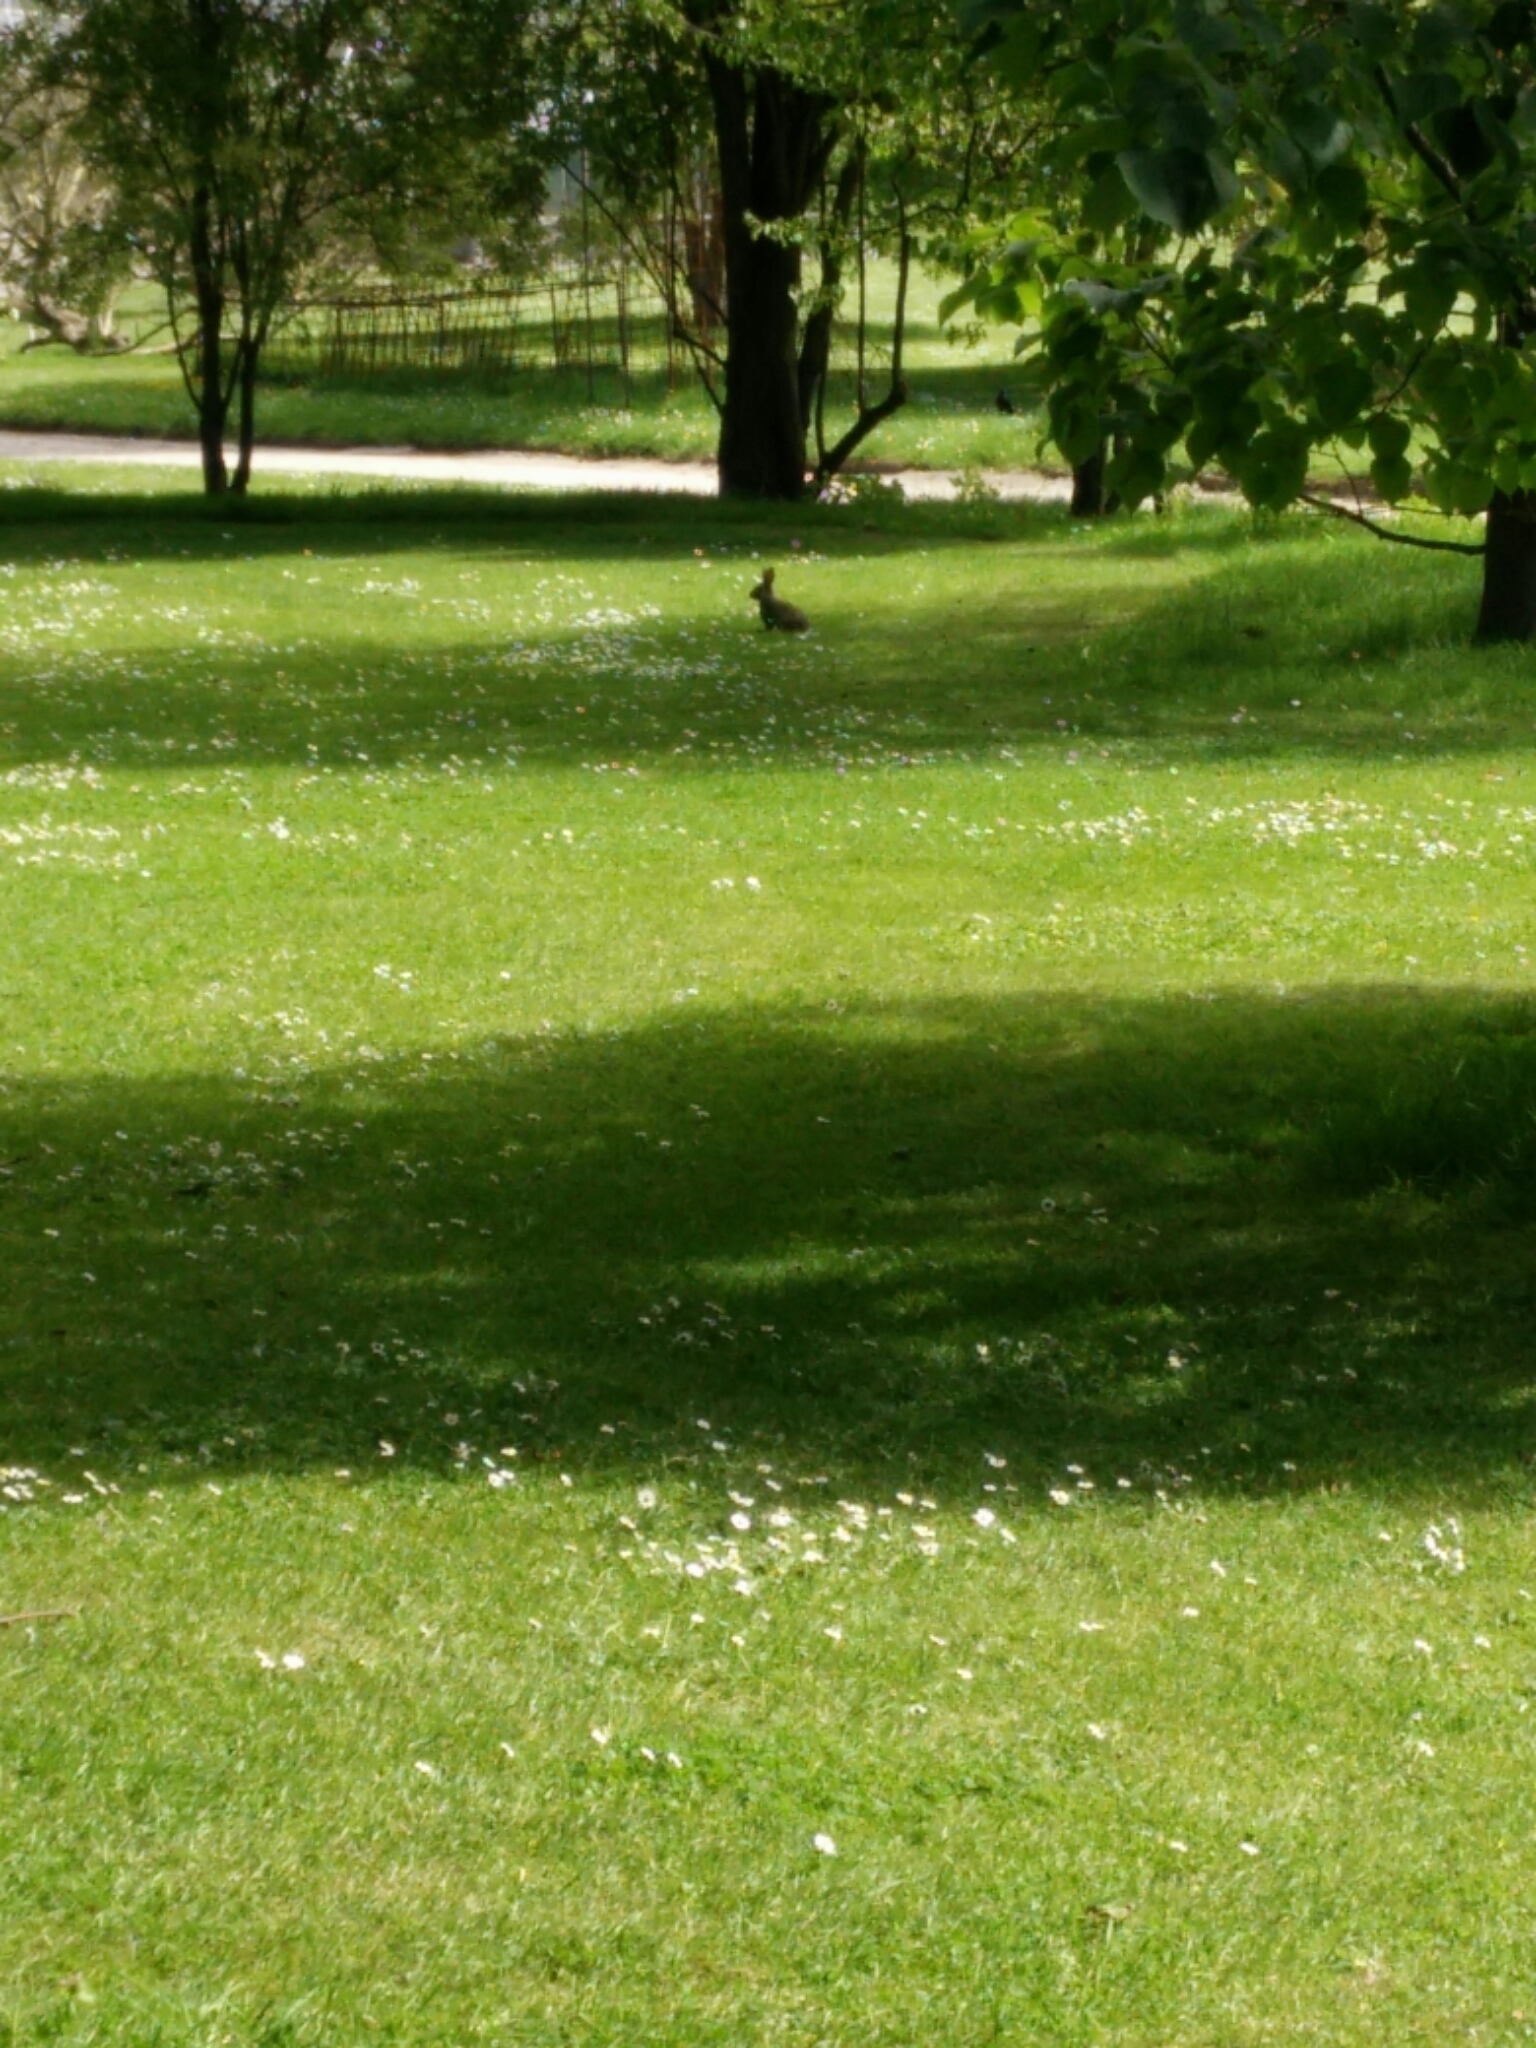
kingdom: Animalia
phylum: Chordata
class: Mammalia
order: Lagomorpha
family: Leporidae
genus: Oryctolagus
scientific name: Oryctolagus cuniculus
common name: European rabbit
